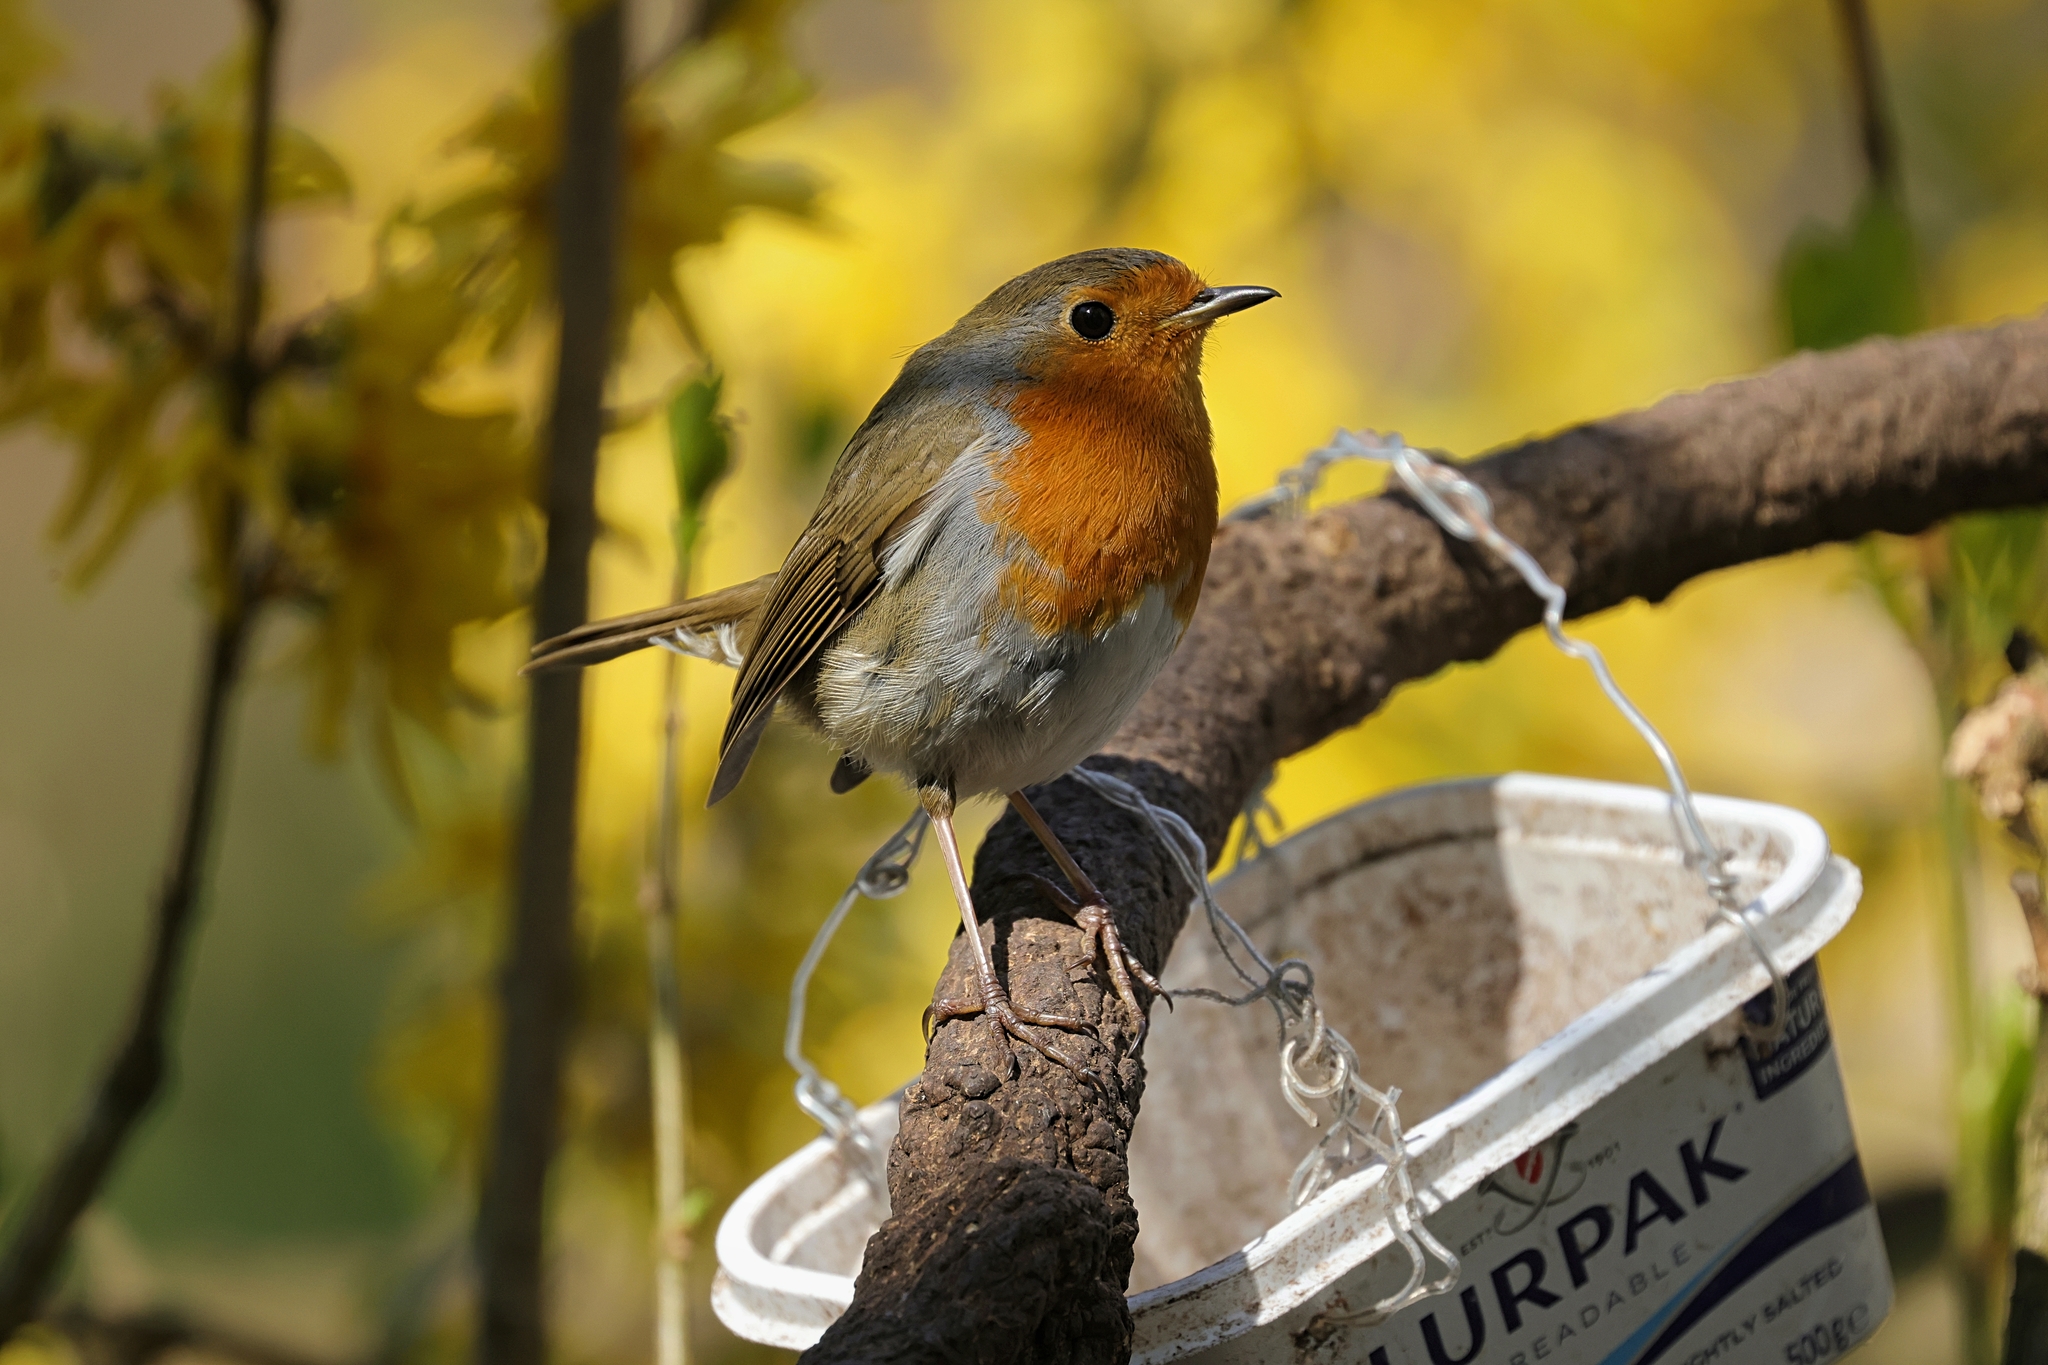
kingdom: Animalia
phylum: Chordata
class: Aves
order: Passeriformes
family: Muscicapidae
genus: Erithacus
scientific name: Erithacus rubecula
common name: European robin
